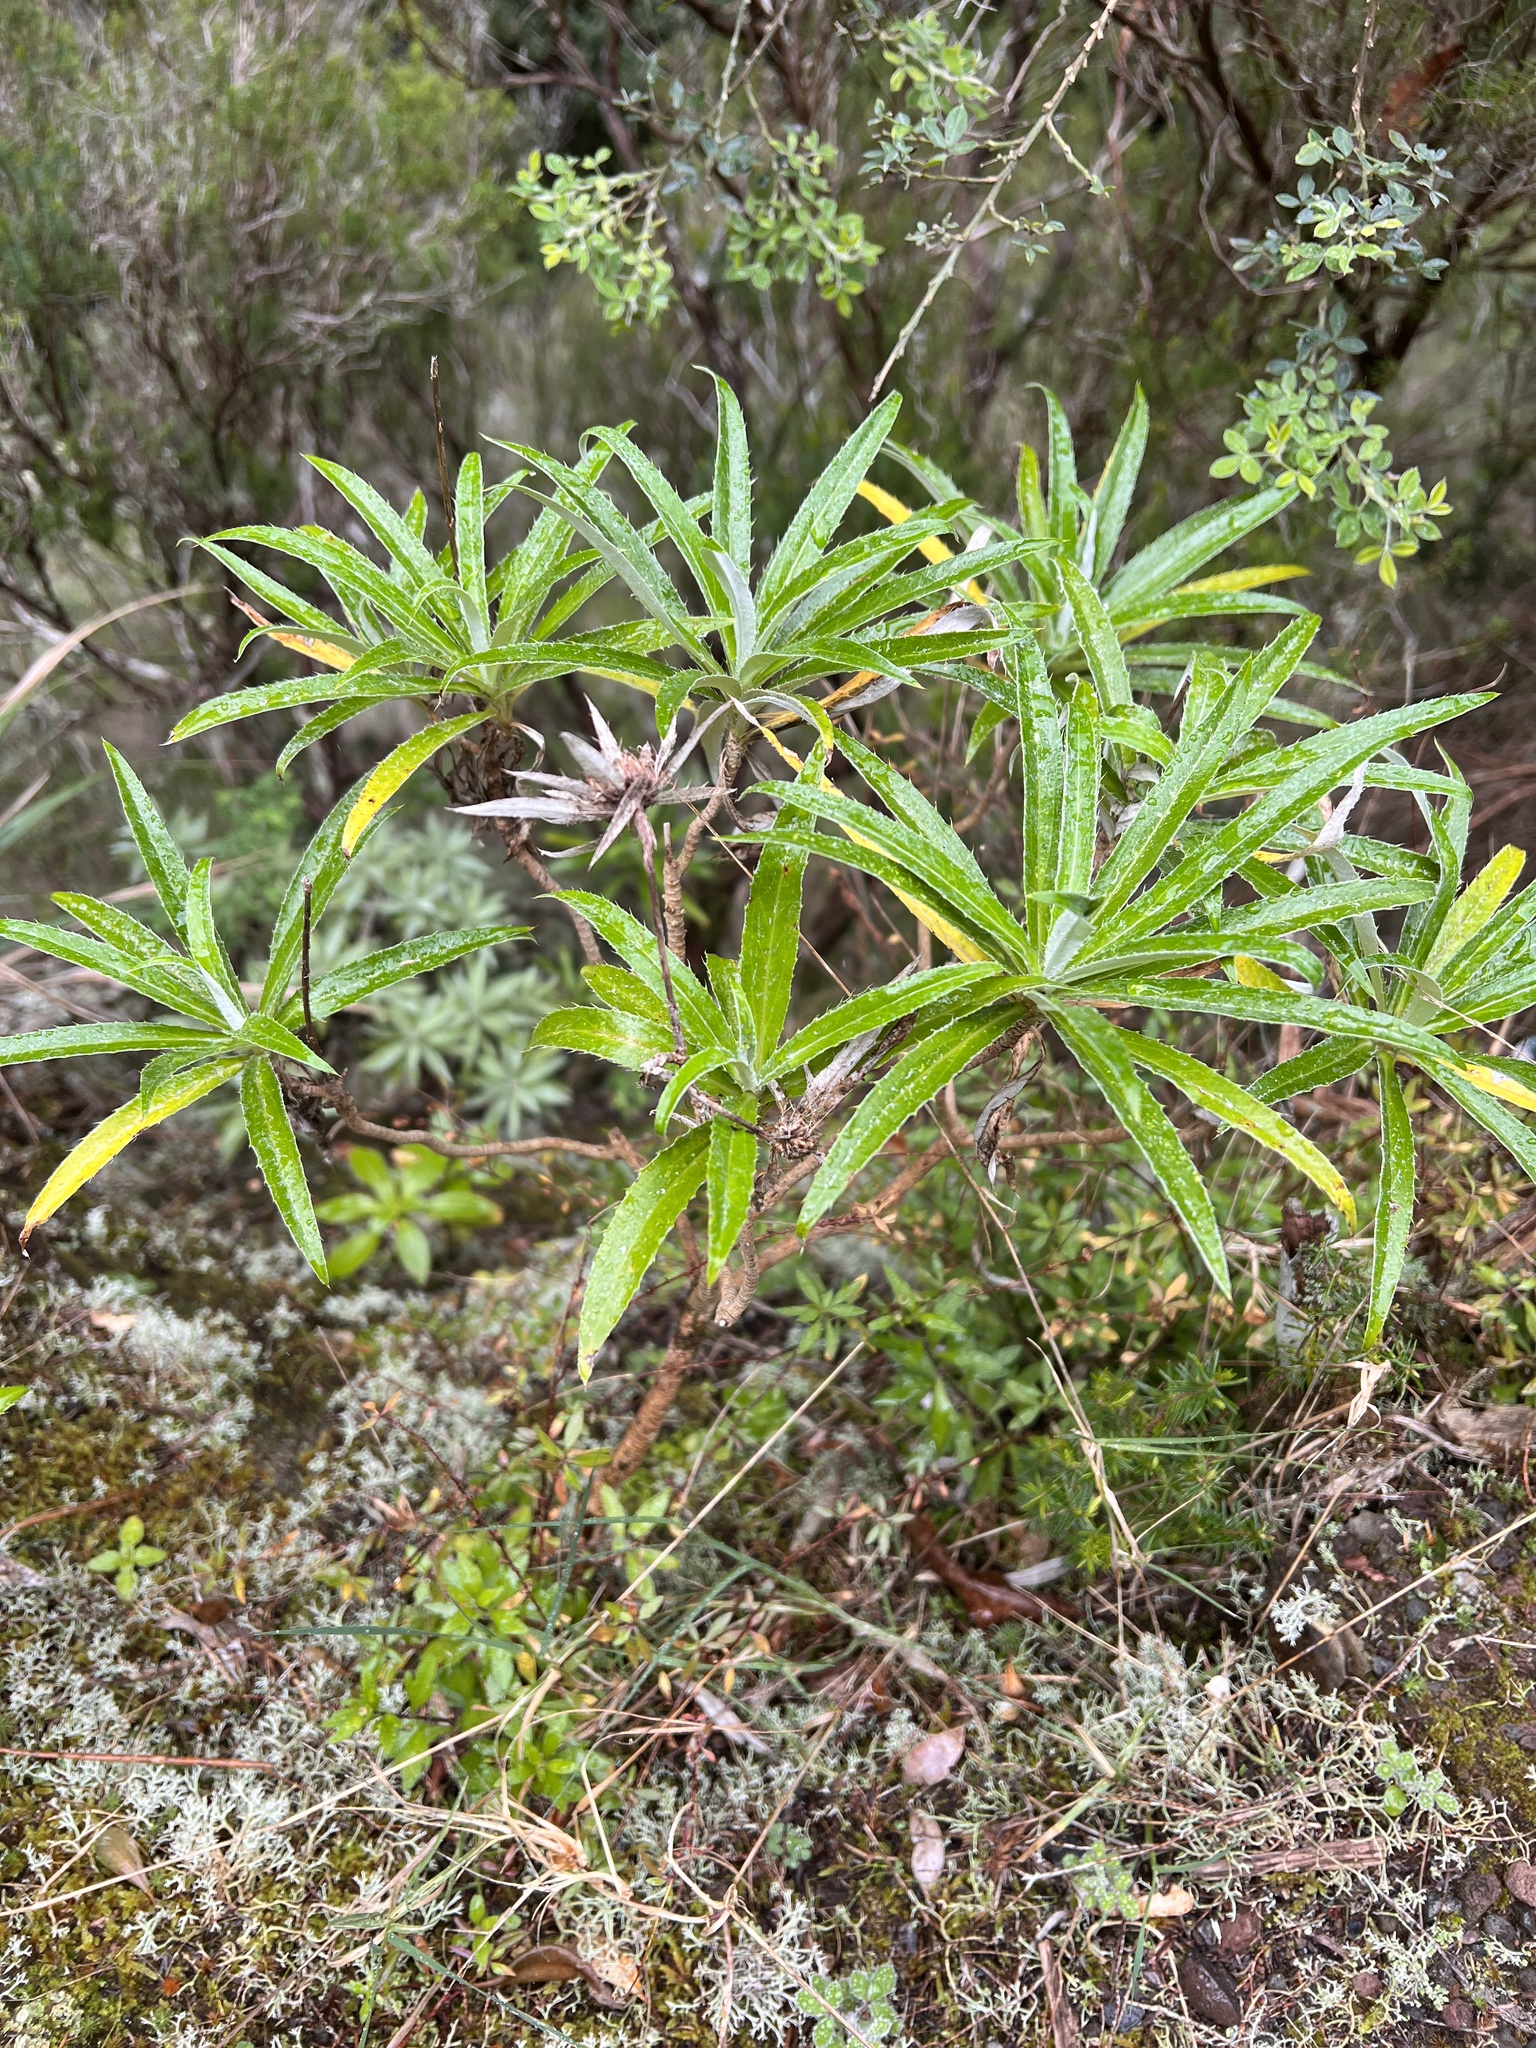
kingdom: Plantae
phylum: Tracheophyta
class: Magnoliopsida
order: Asterales
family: Asteraceae
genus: Carlina
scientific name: Carlina salicifolia
